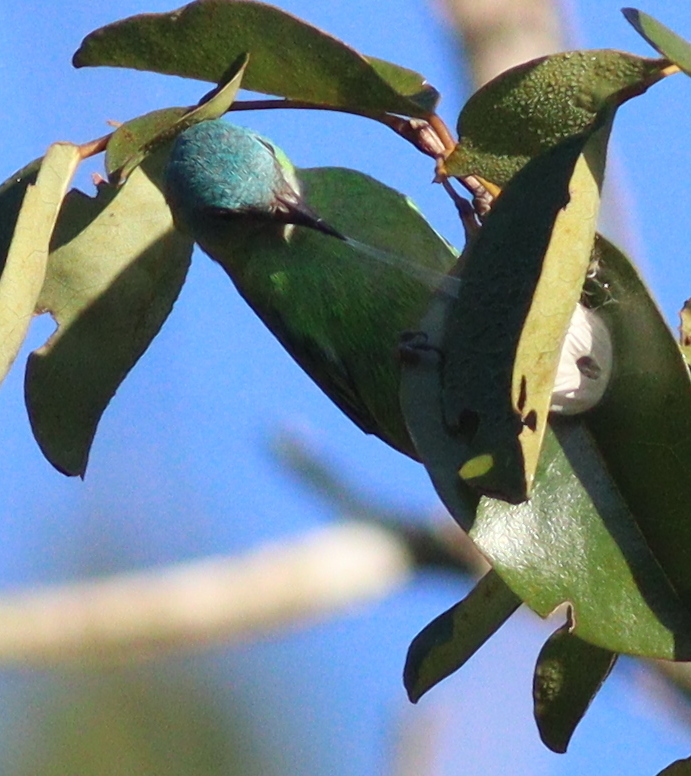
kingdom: Animalia
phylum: Chordata
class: Aves
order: Passeriformes
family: Thraupidae
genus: Dacnis
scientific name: Dacnis cayana
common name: Blue dacnis
